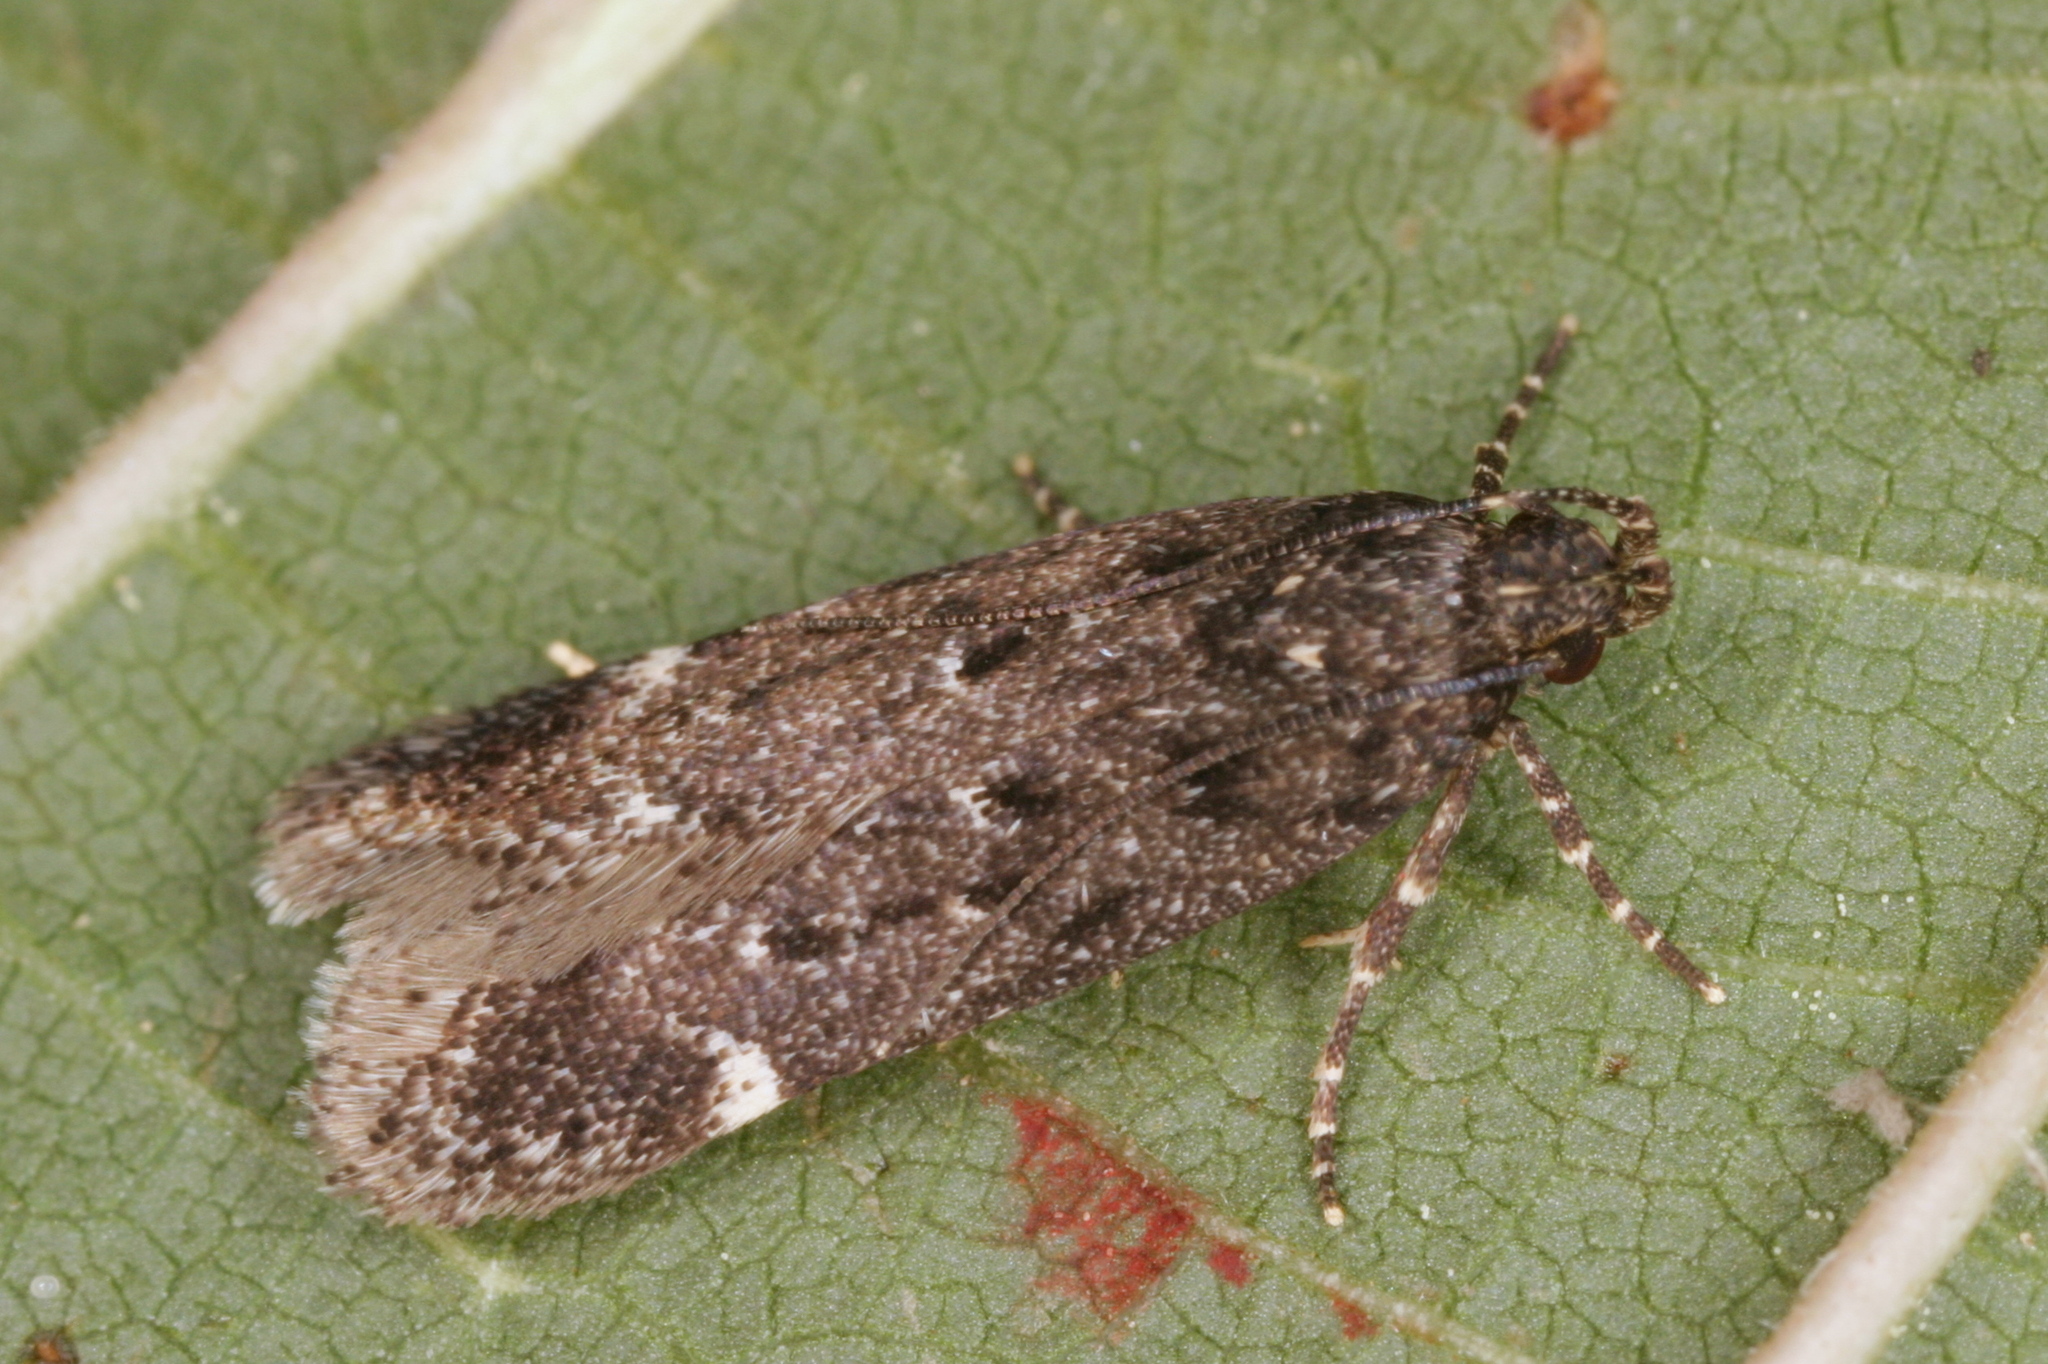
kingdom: Animalia
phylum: Arthropoda
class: Insecta
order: Lepidoptera
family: Gelechiidae
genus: Neofriseria
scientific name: Neofriseria peliella
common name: White-spot groundling
